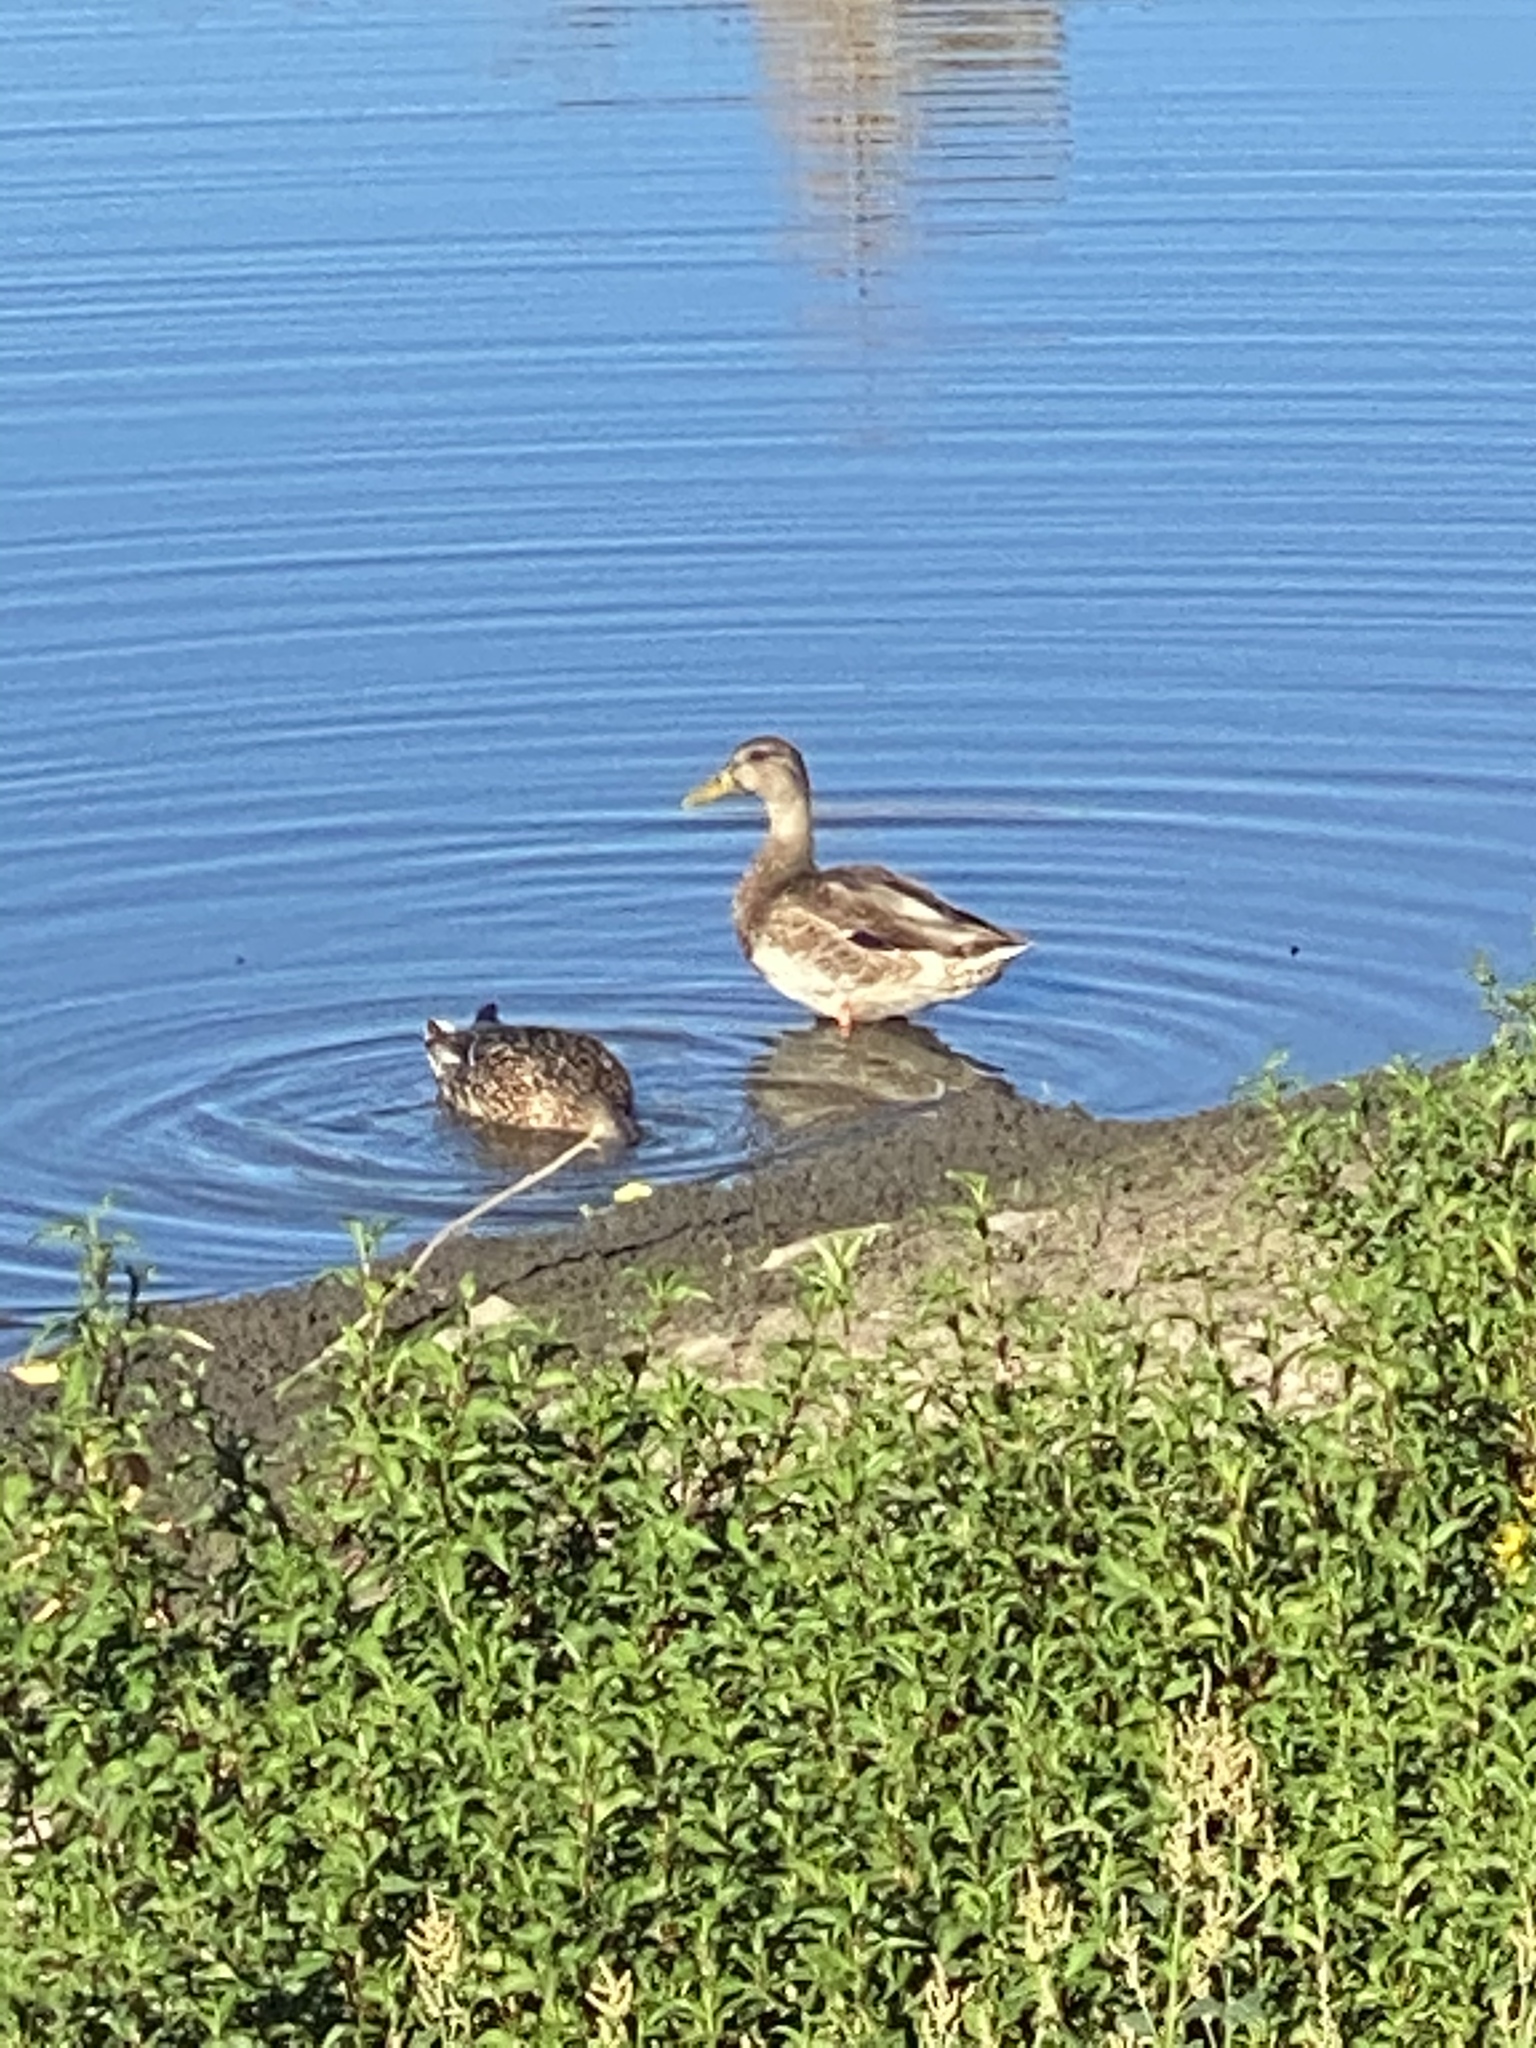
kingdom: Animalia
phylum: Chordata
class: Aves
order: Anseriformes
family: Anatidae
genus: Anas
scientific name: Anas platyrhynchos
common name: Mallard
